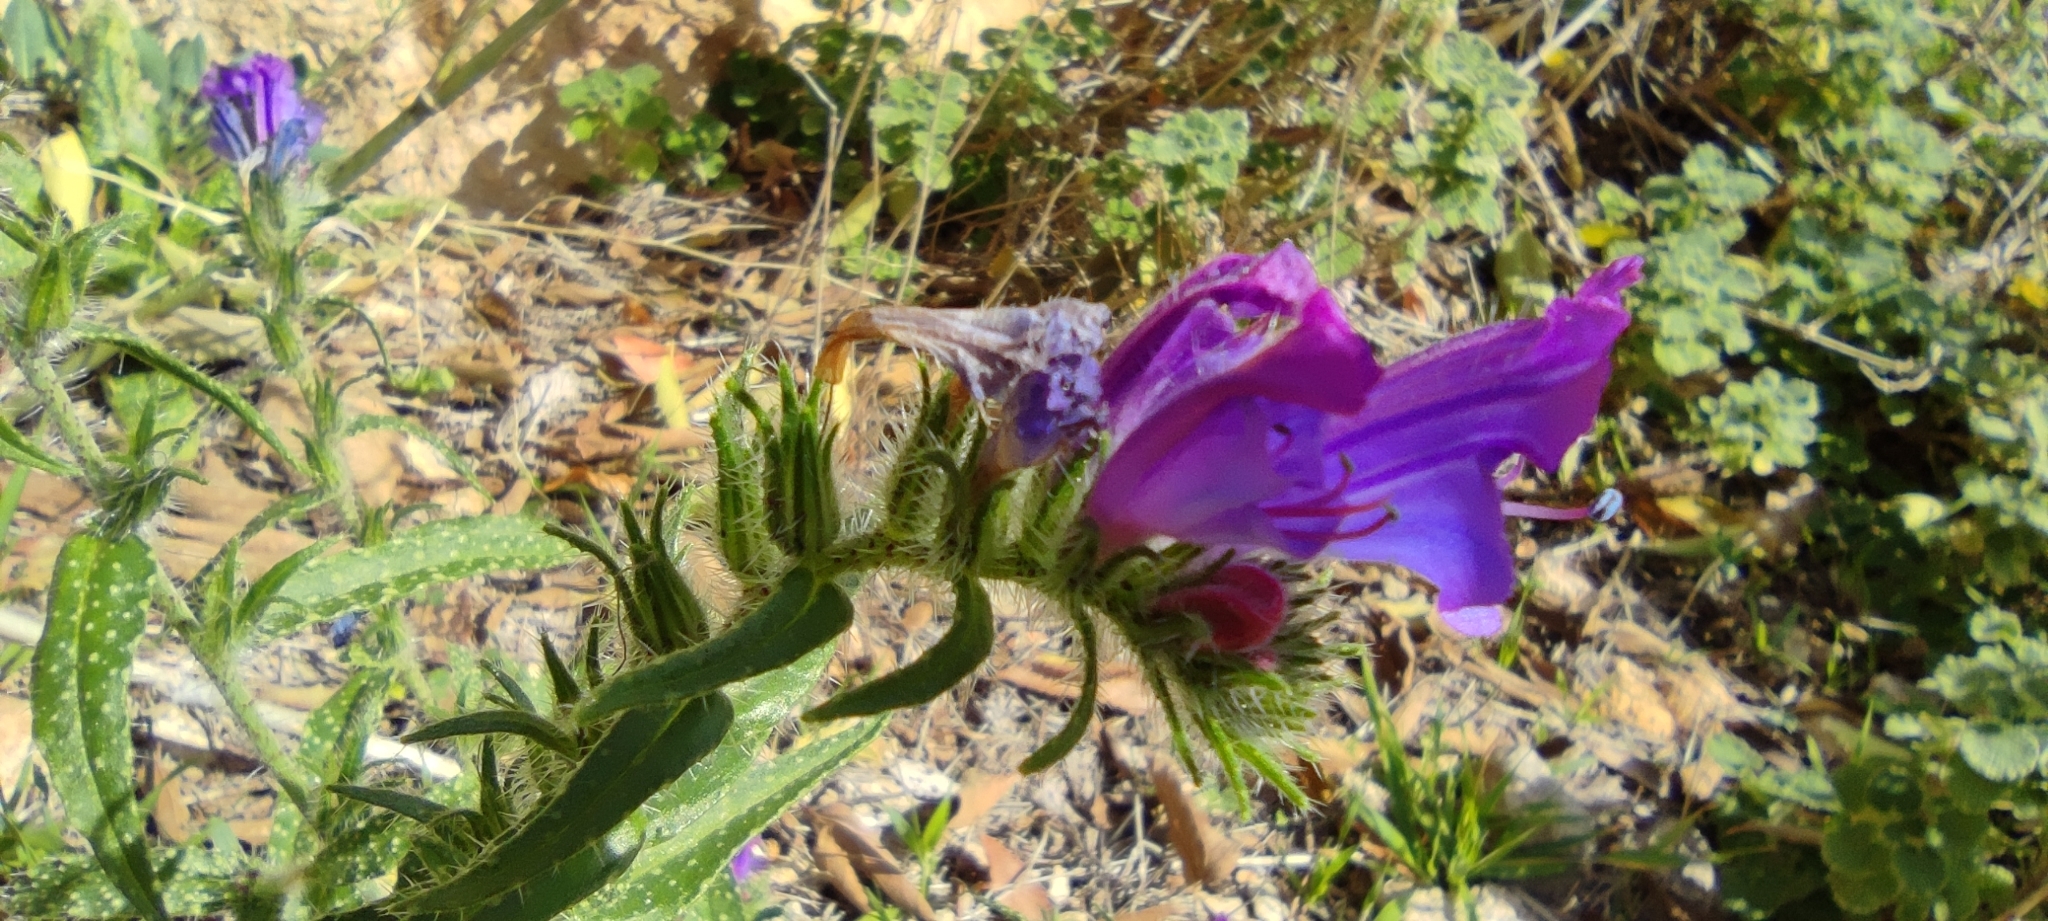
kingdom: Plantae
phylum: Tracheophyta
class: Magnoliopsida
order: Boraginales
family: Boraginaceae
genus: Echium
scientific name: Echium creticum
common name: Cretan viper's bugloss
